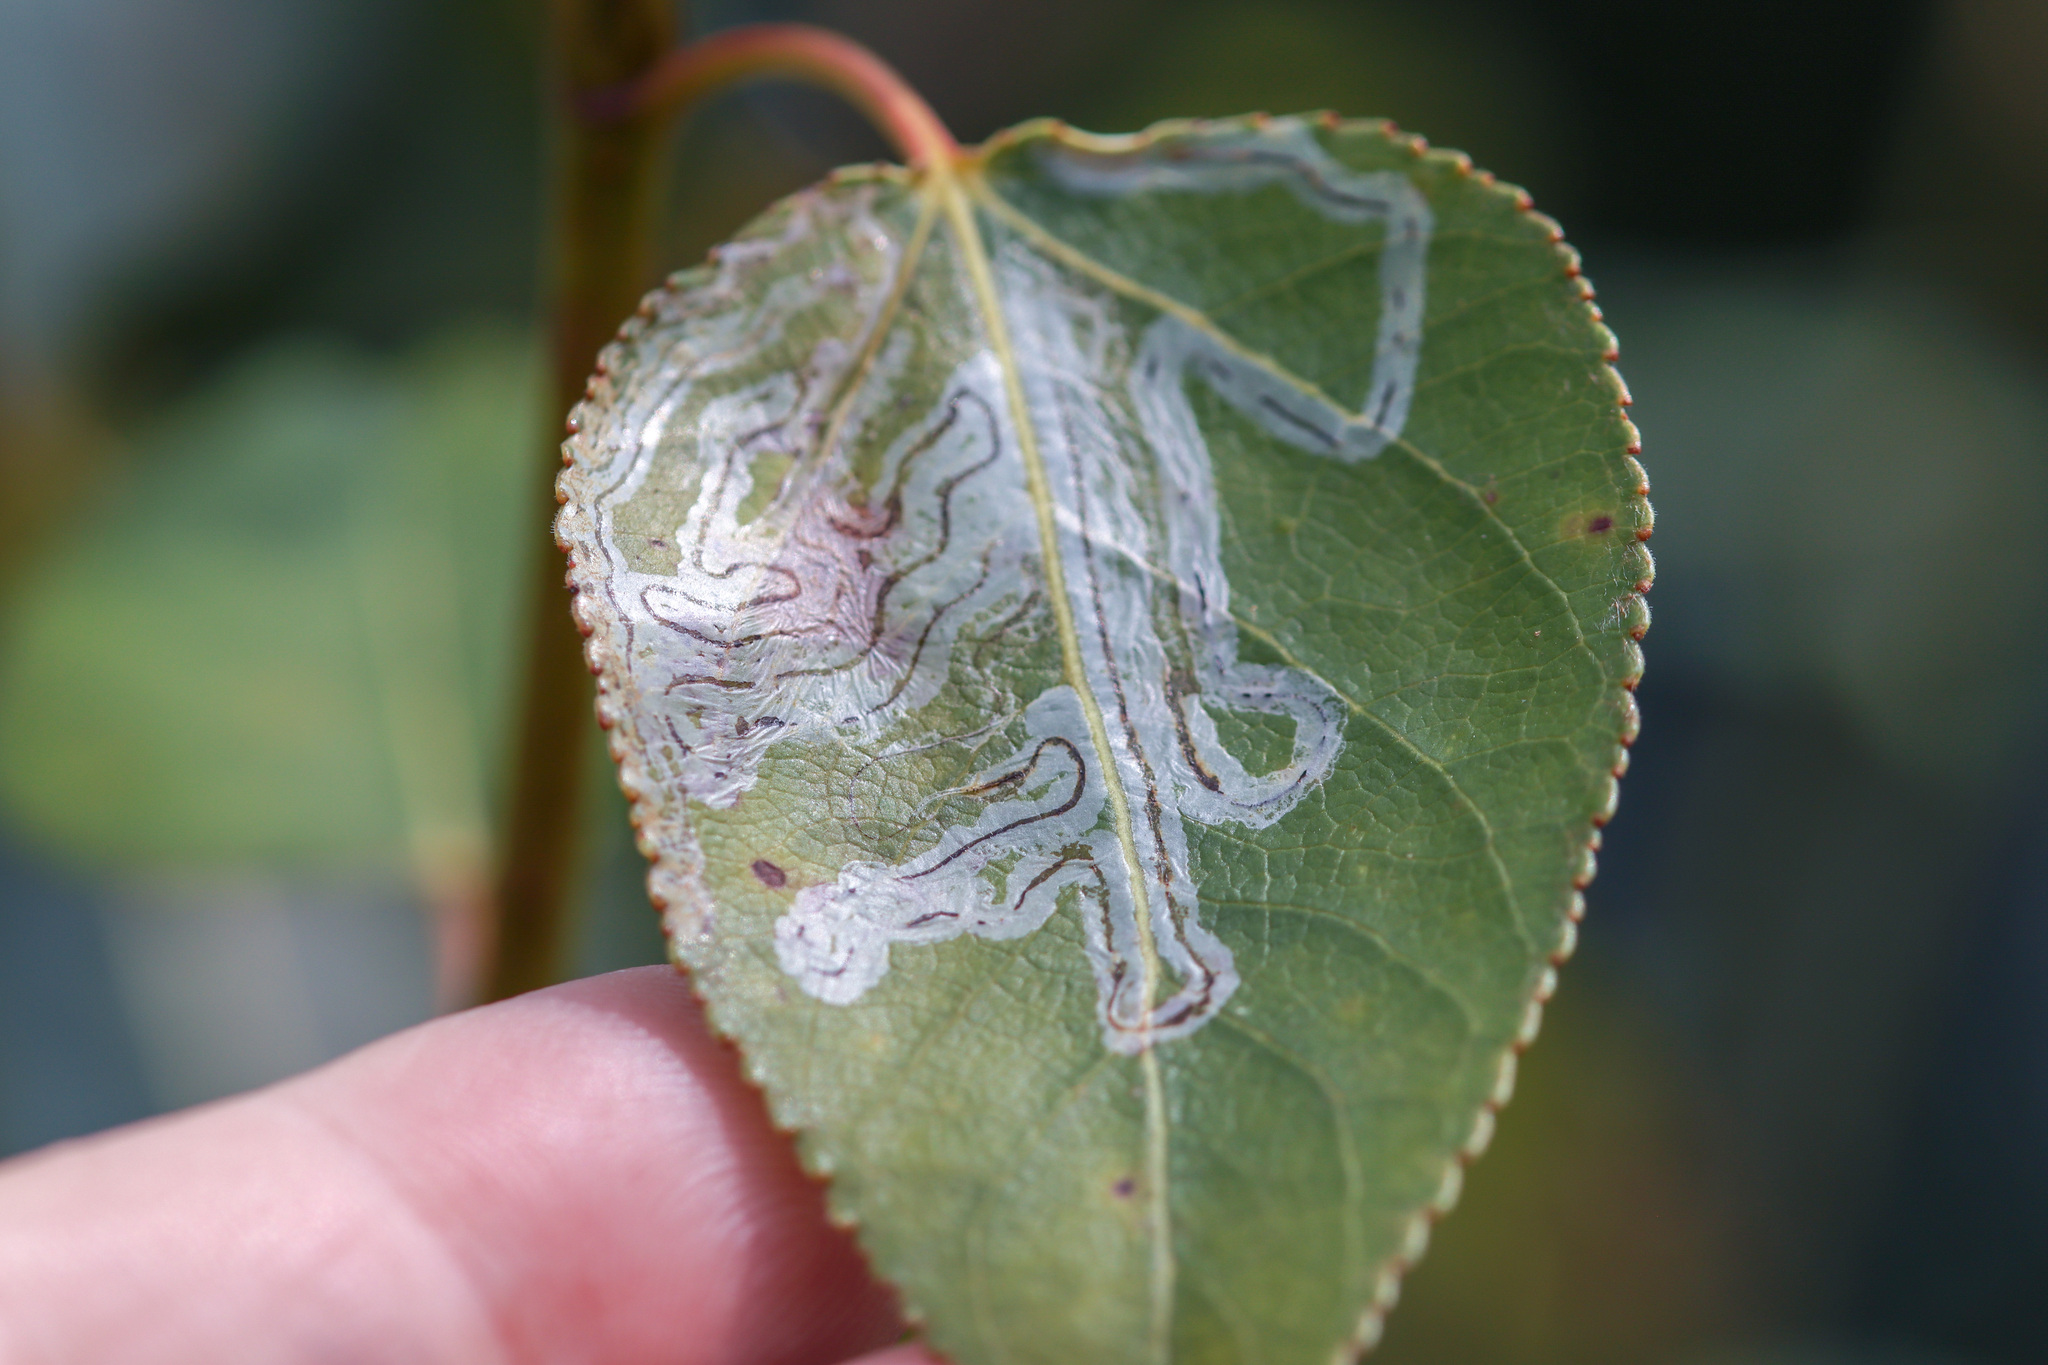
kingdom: Animalia
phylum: Arthropoda
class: Insecta
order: Lepidoptera
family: Gracillariidae
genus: Phyllocnistis
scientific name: Phyllocnistis populiella
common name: Aspen serpentine leafminer moth
